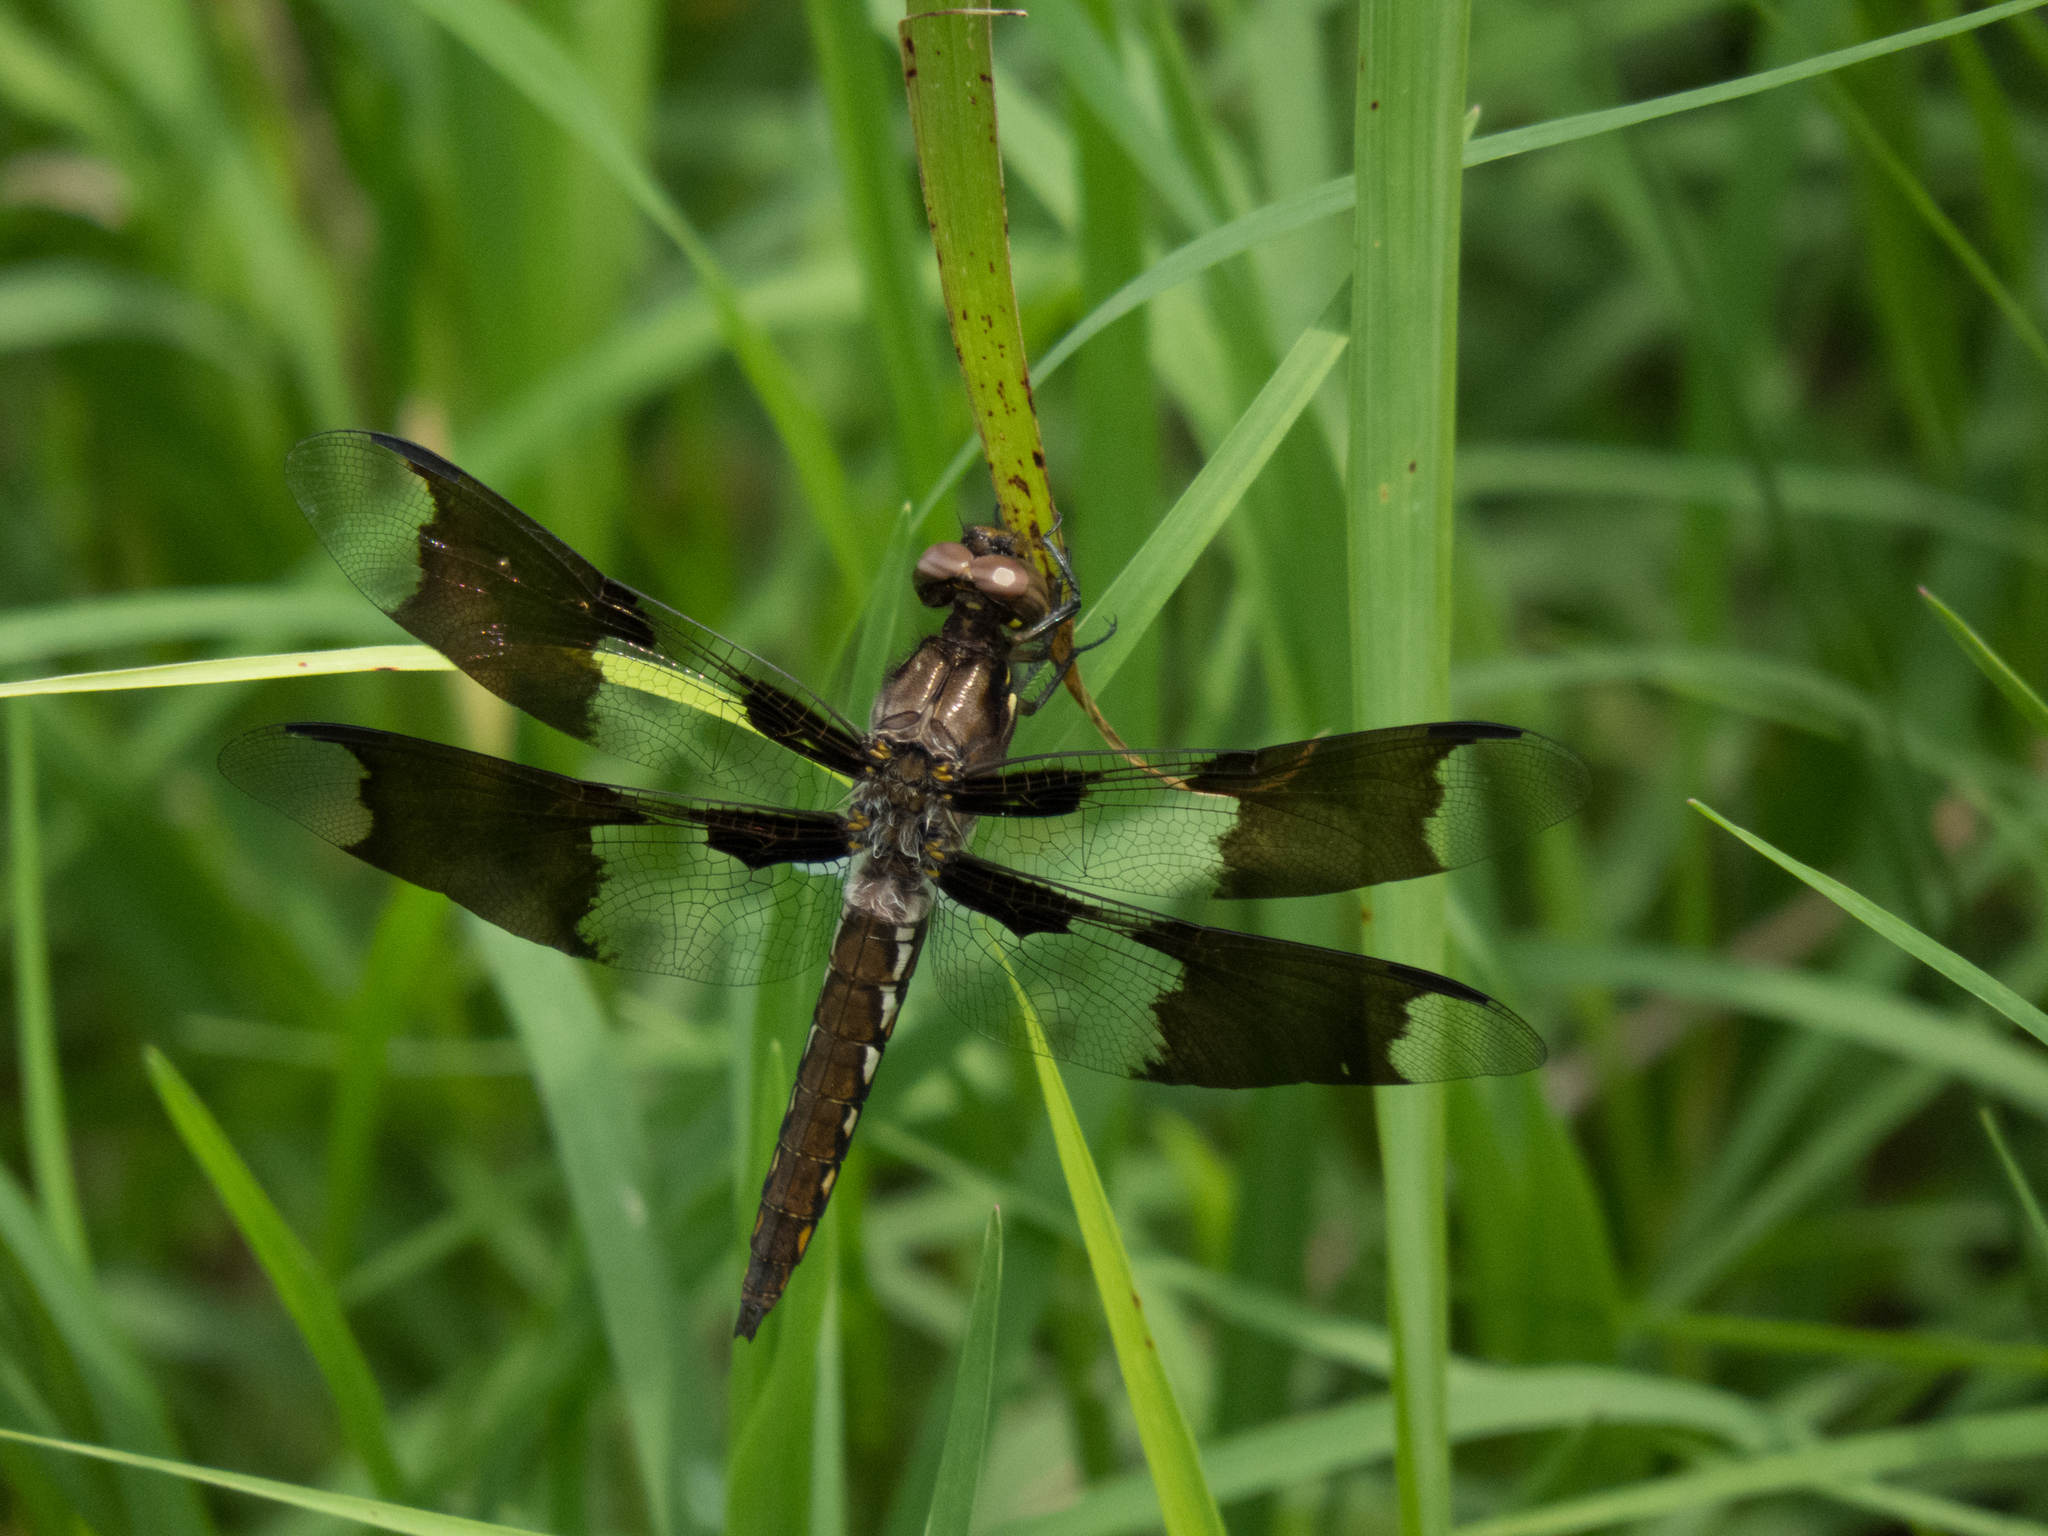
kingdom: Animalia
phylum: Arthropoda
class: Insecta
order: Odonata
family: Libellulidae
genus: Plathemis
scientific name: Plathemis lydia
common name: Common whitetail
